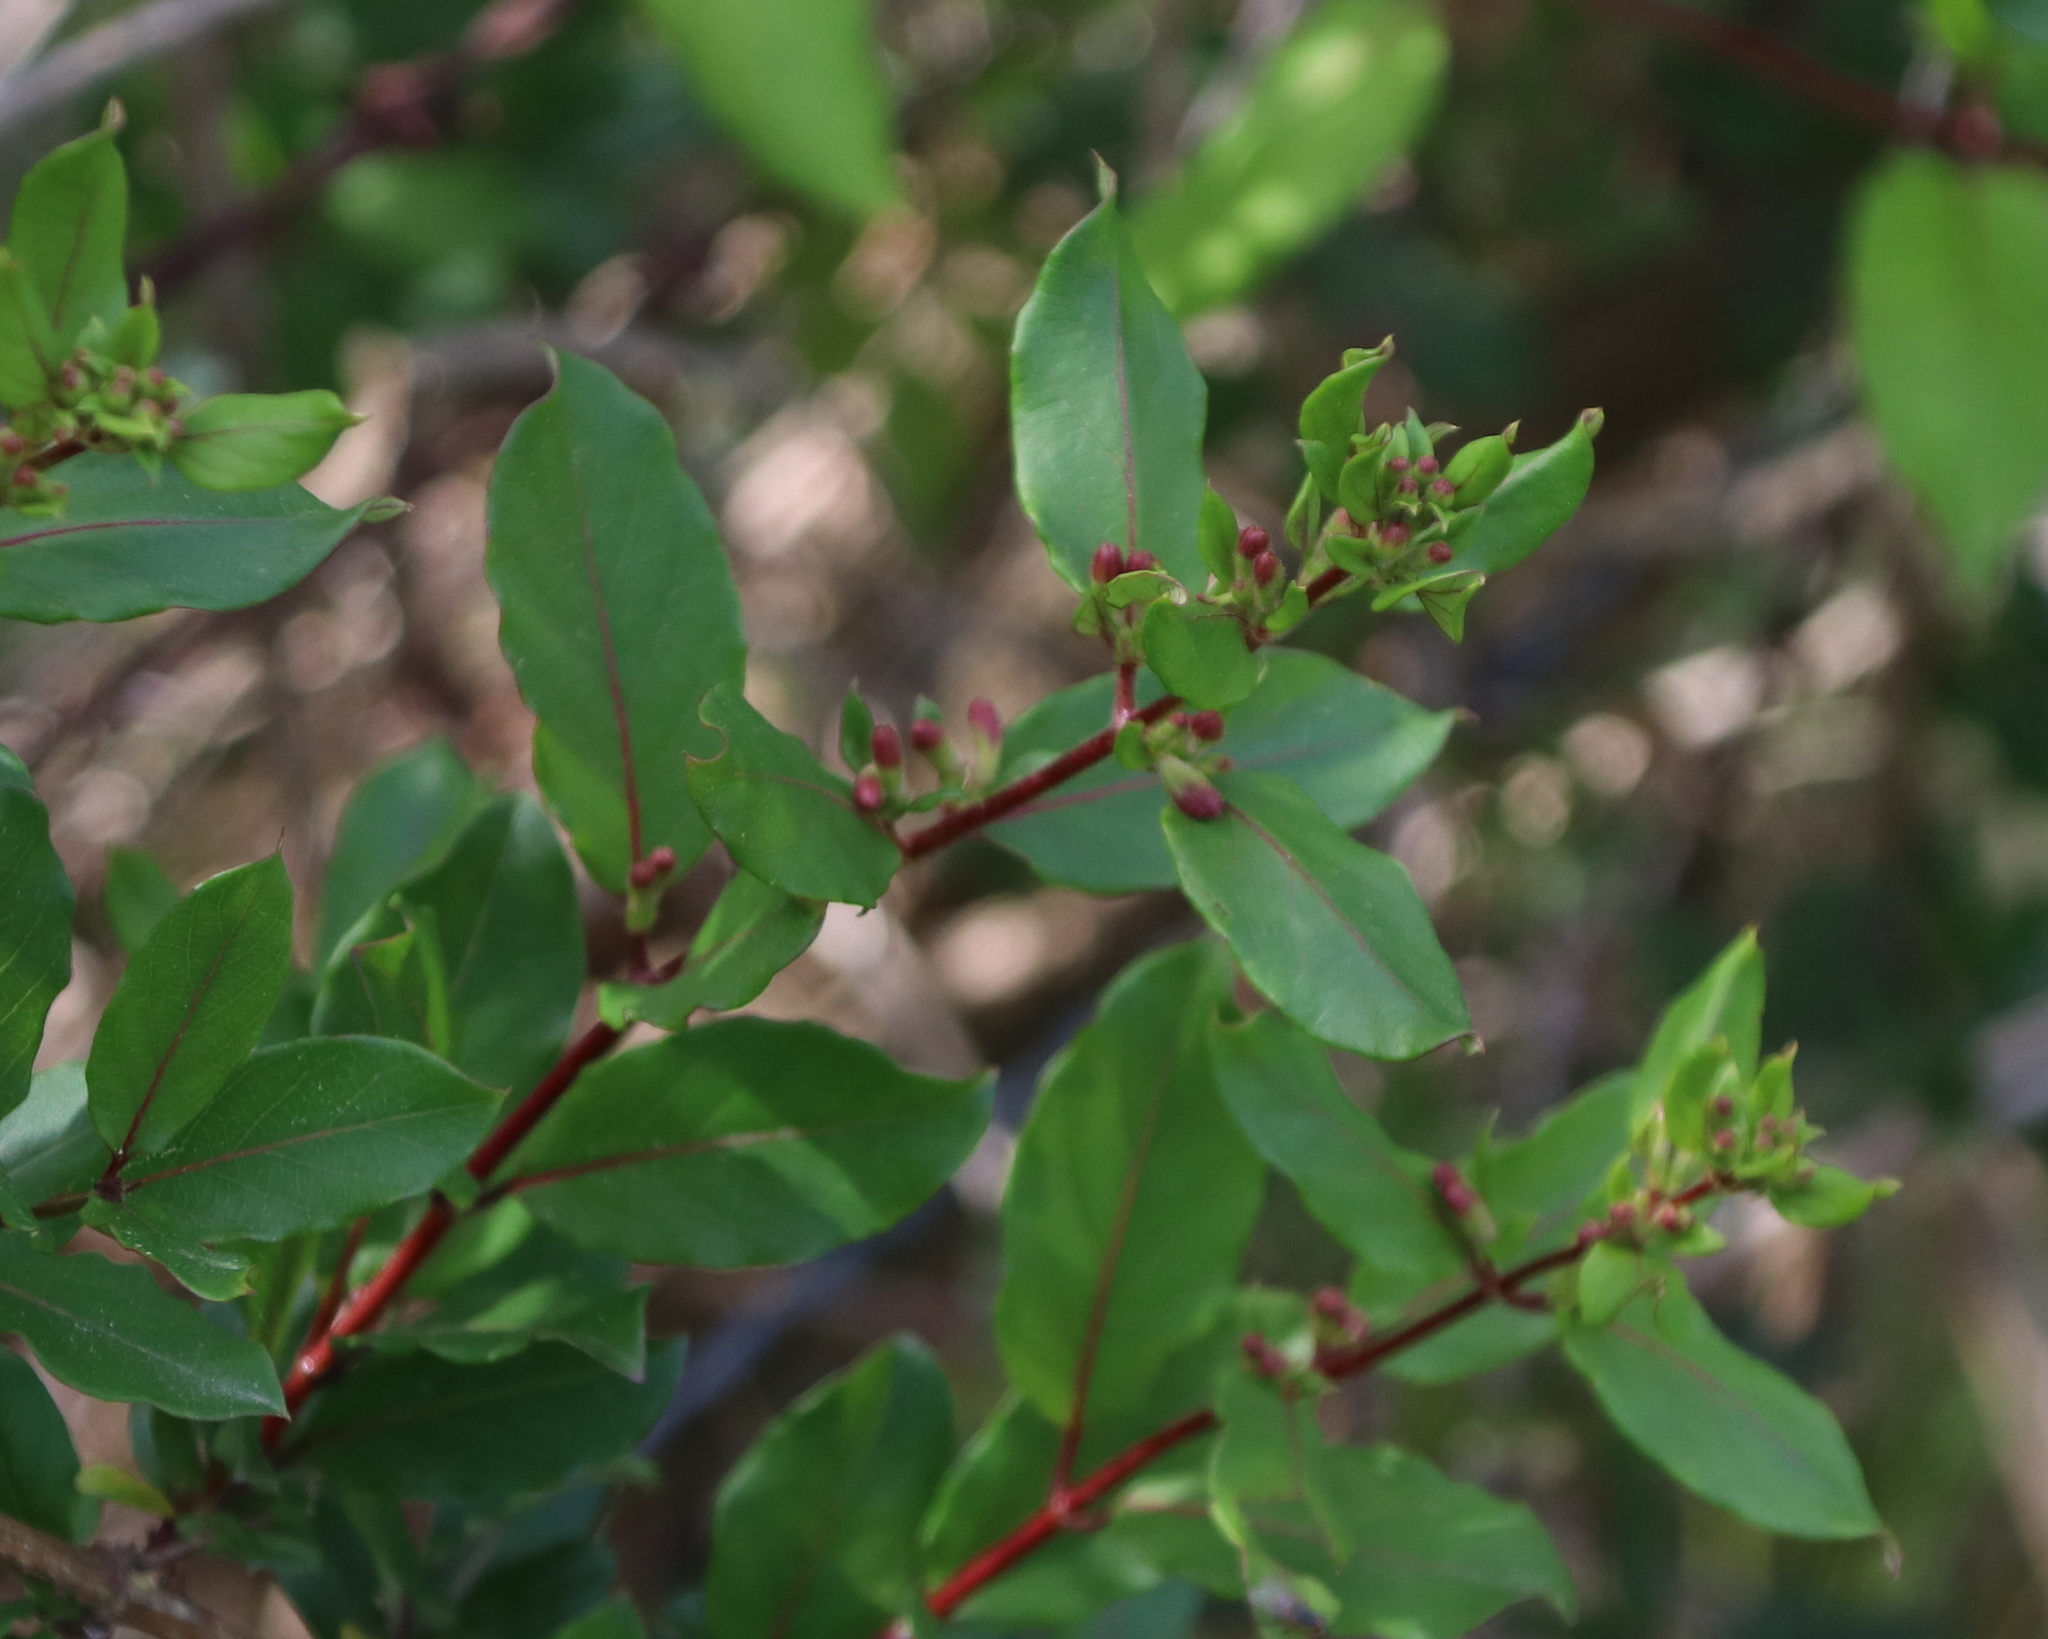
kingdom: Plantae
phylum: Tracheophyta
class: Magnoliopsida
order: Dipsacales
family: Caprifoliaceae
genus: Lonicera
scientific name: Lonicera japonica
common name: Japanese honeysuckle
